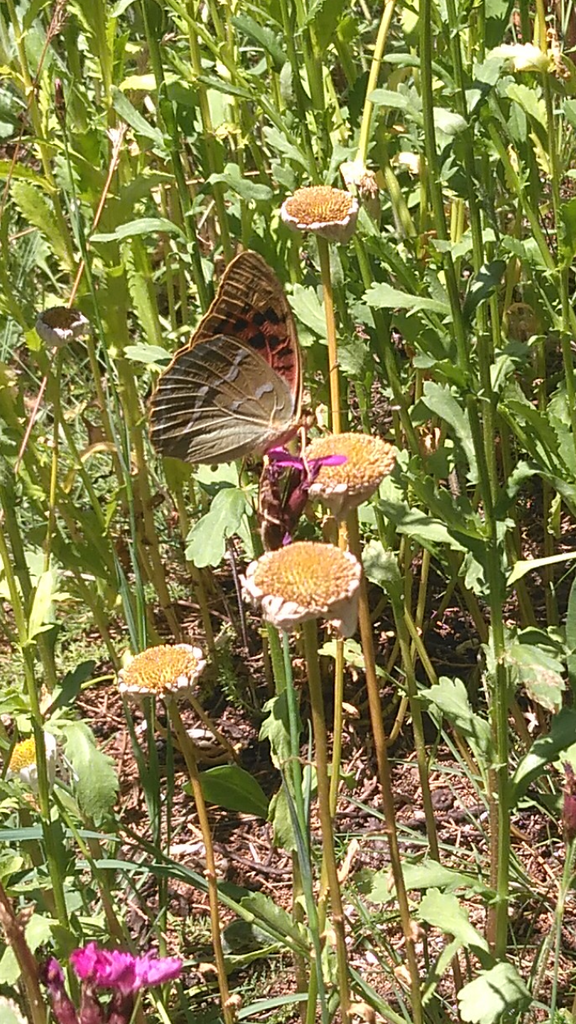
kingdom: Animalia
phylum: Arthropoda
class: Insecta
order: Lepidoptera
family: Nymphalidae
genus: Damora
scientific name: Damora pandora
